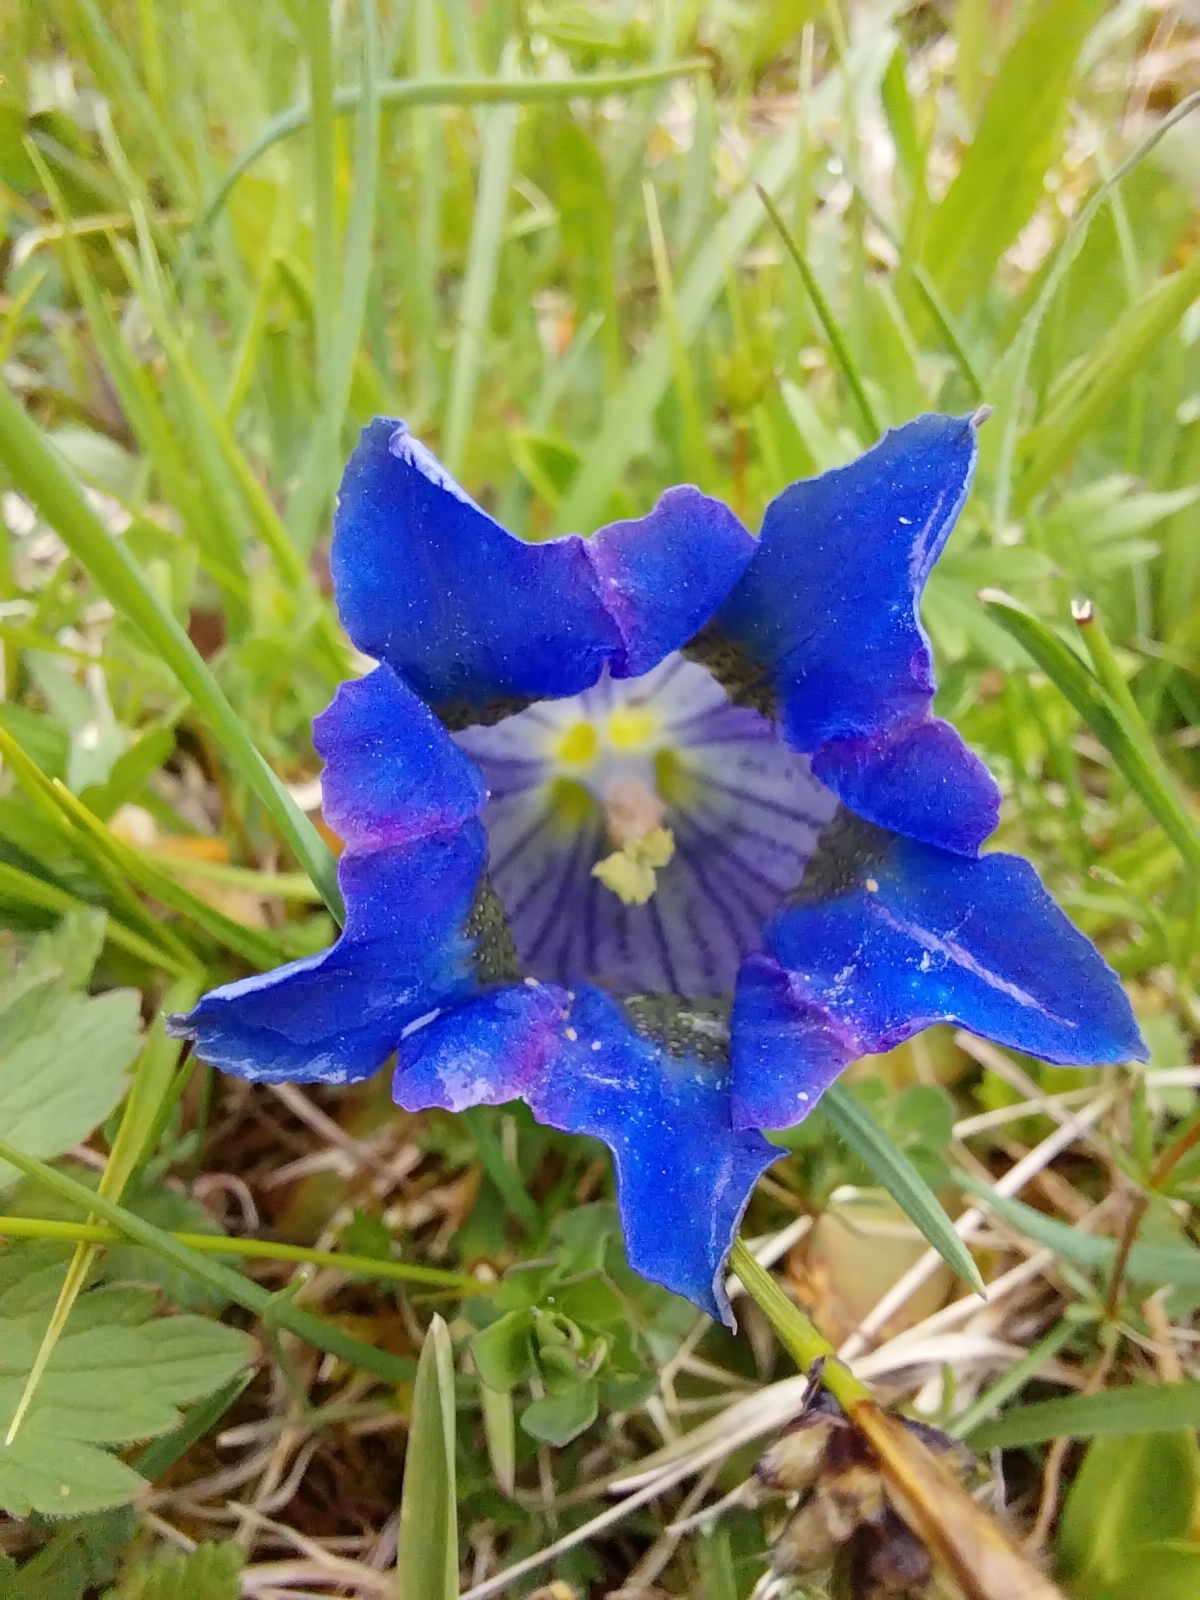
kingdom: Plantae
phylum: Tracheophyta
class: Magnoliopsida
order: Gentianales
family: Gentianaceae
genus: Gentiana
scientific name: Gentiana acaulis
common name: Trumpet gentian
